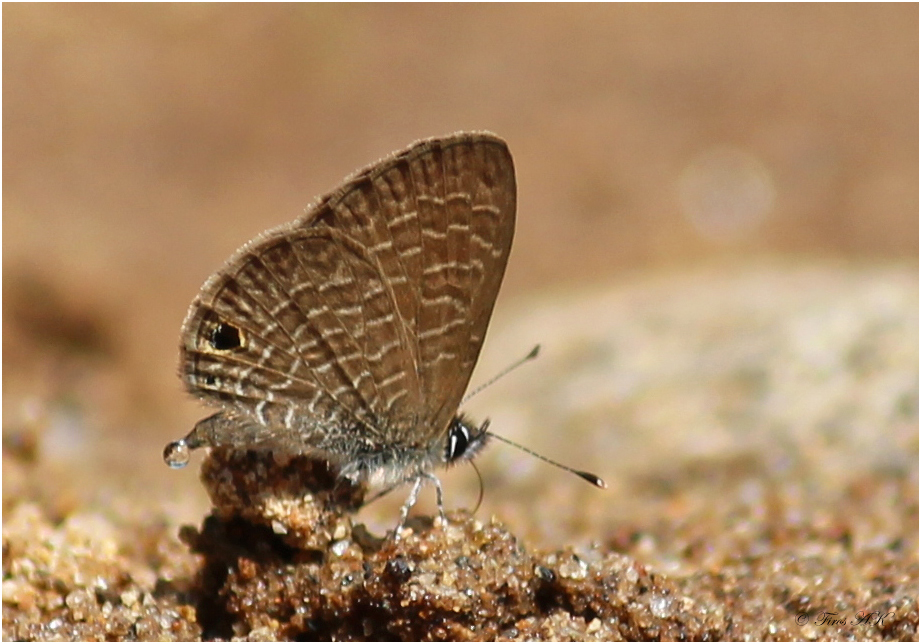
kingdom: Animalia
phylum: Arthropoda
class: Insecta
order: Lepidoptera
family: Lycaenidae
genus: Prosotas
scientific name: Prosotas dubiosa
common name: Tailless lineblue
